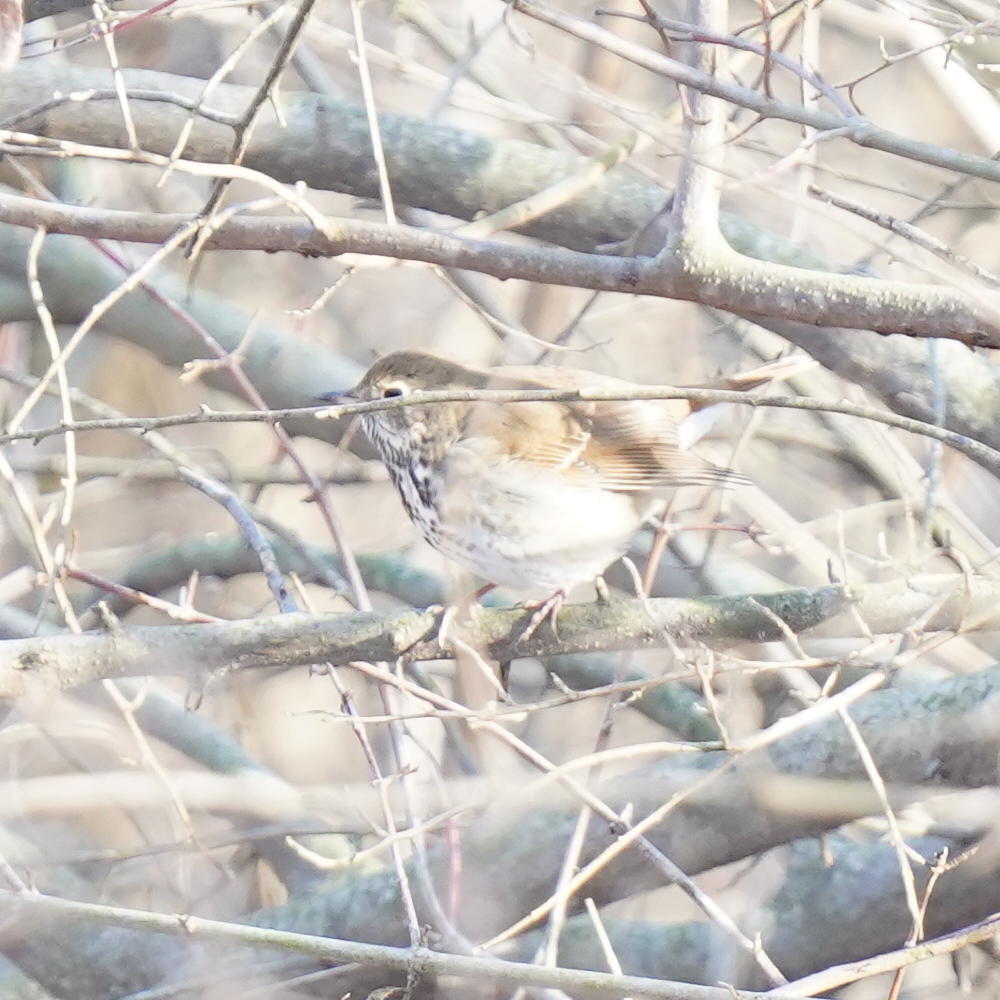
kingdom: Animalia
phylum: Chordata
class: Aves
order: Passeriformes
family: Turdidae
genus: Catharus
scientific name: Catharus guttatus
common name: Hermit thrush
